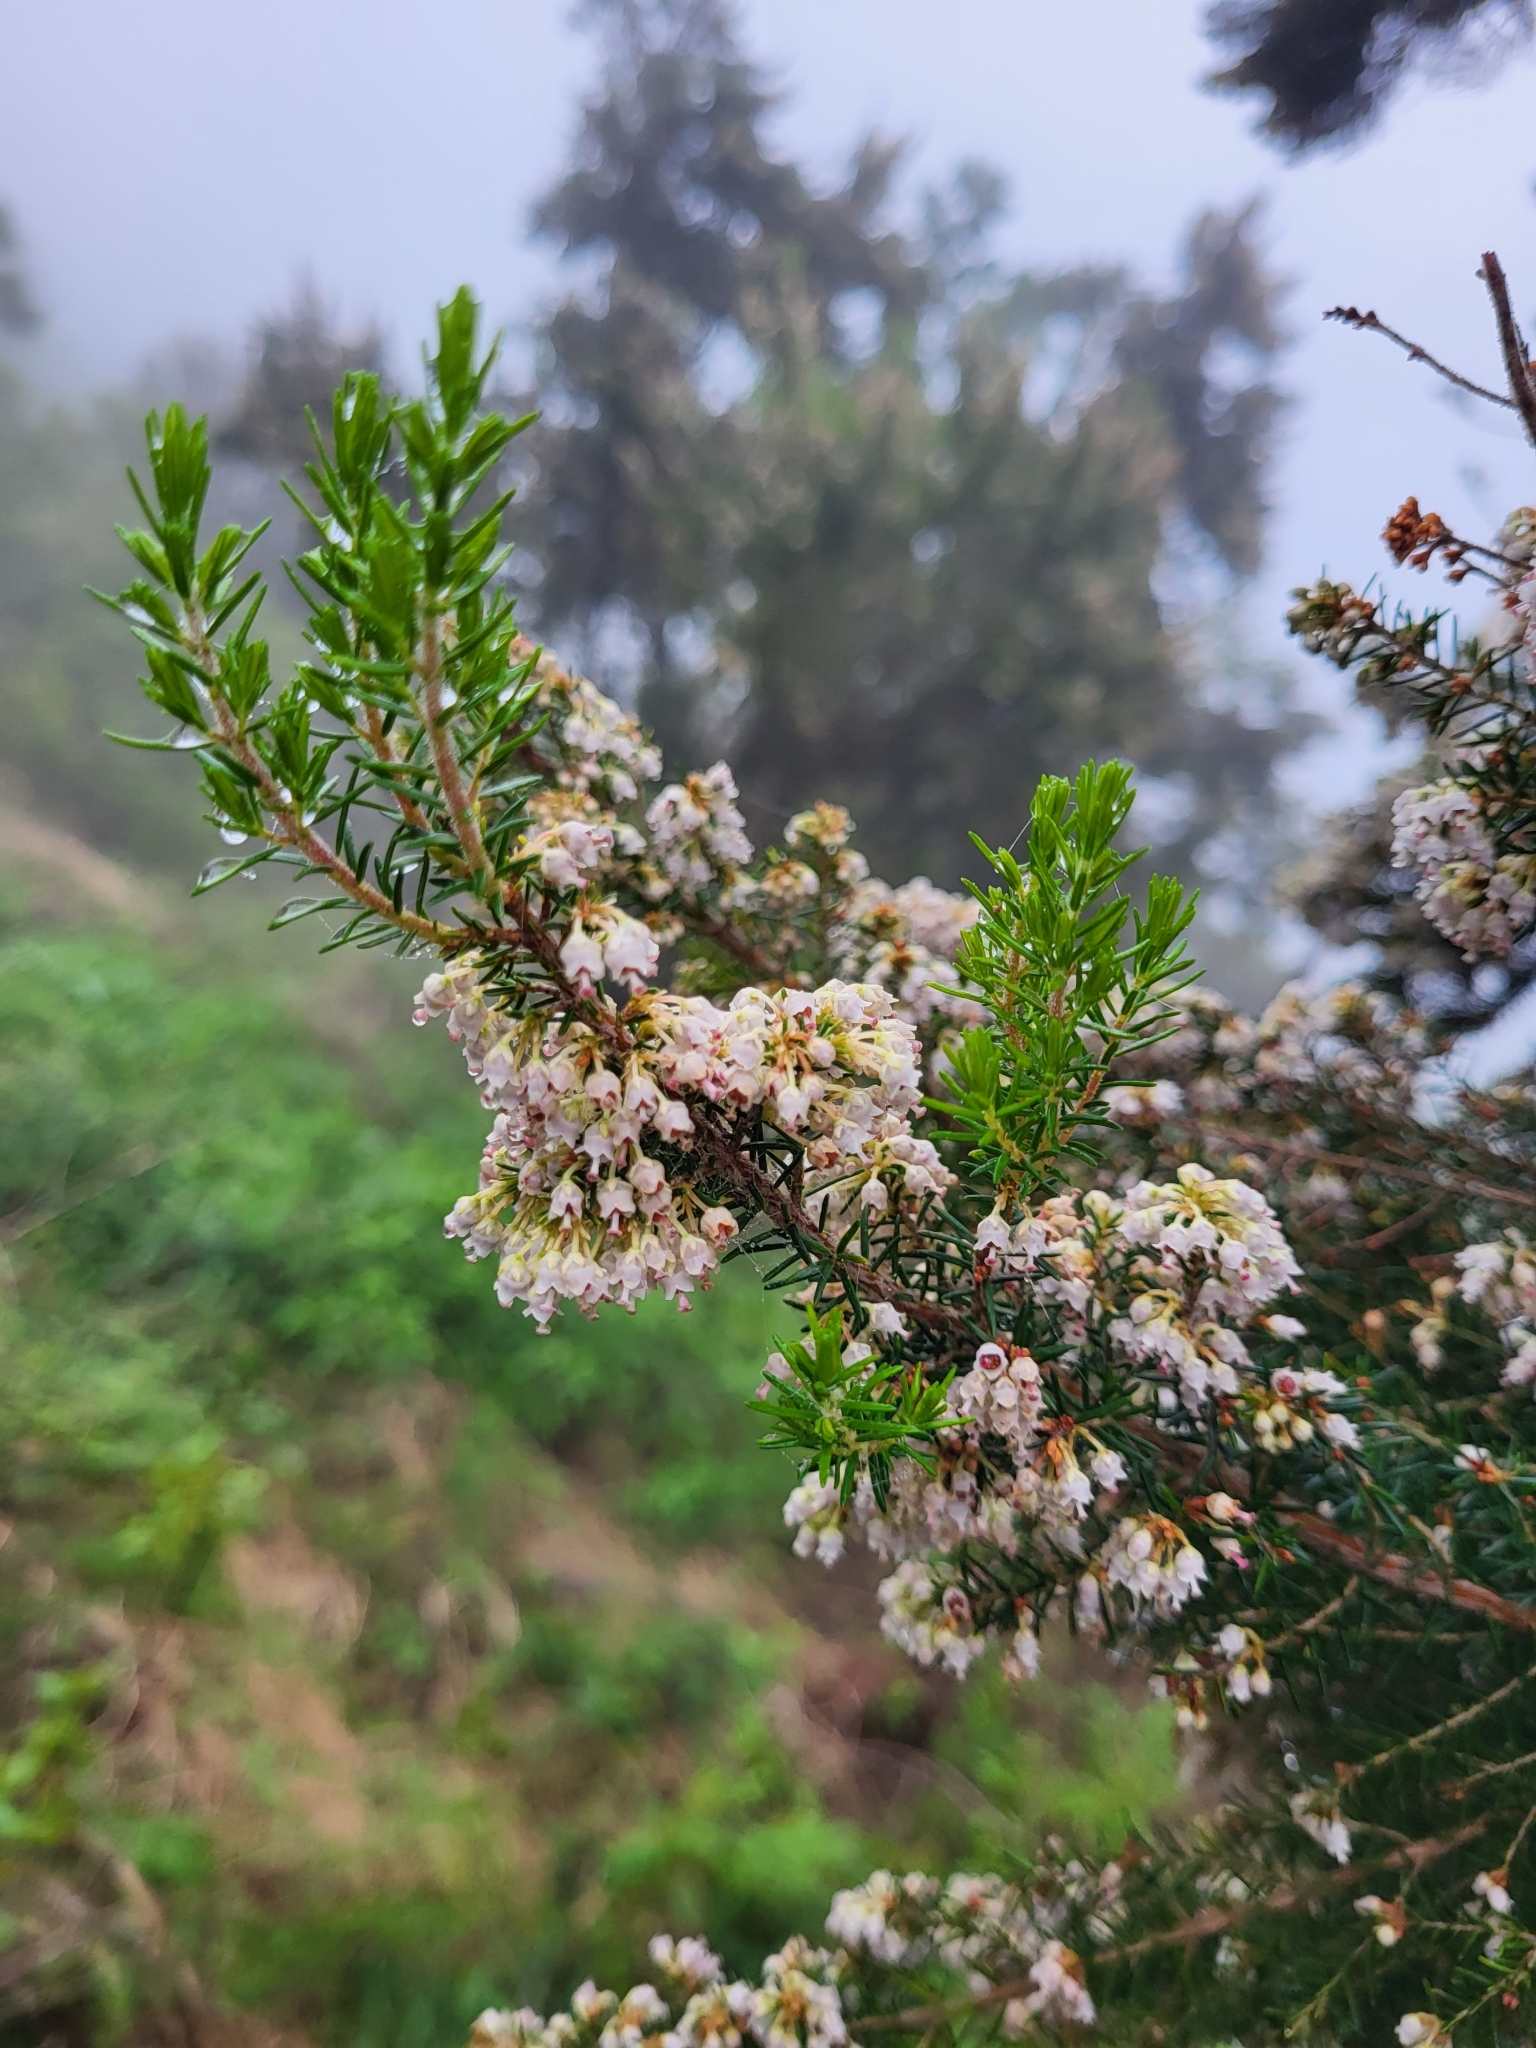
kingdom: Plantae
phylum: Tracheophyta
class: Magnoliopsida
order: Ericales
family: Ericaceae
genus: Erica
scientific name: Erica canariensis
